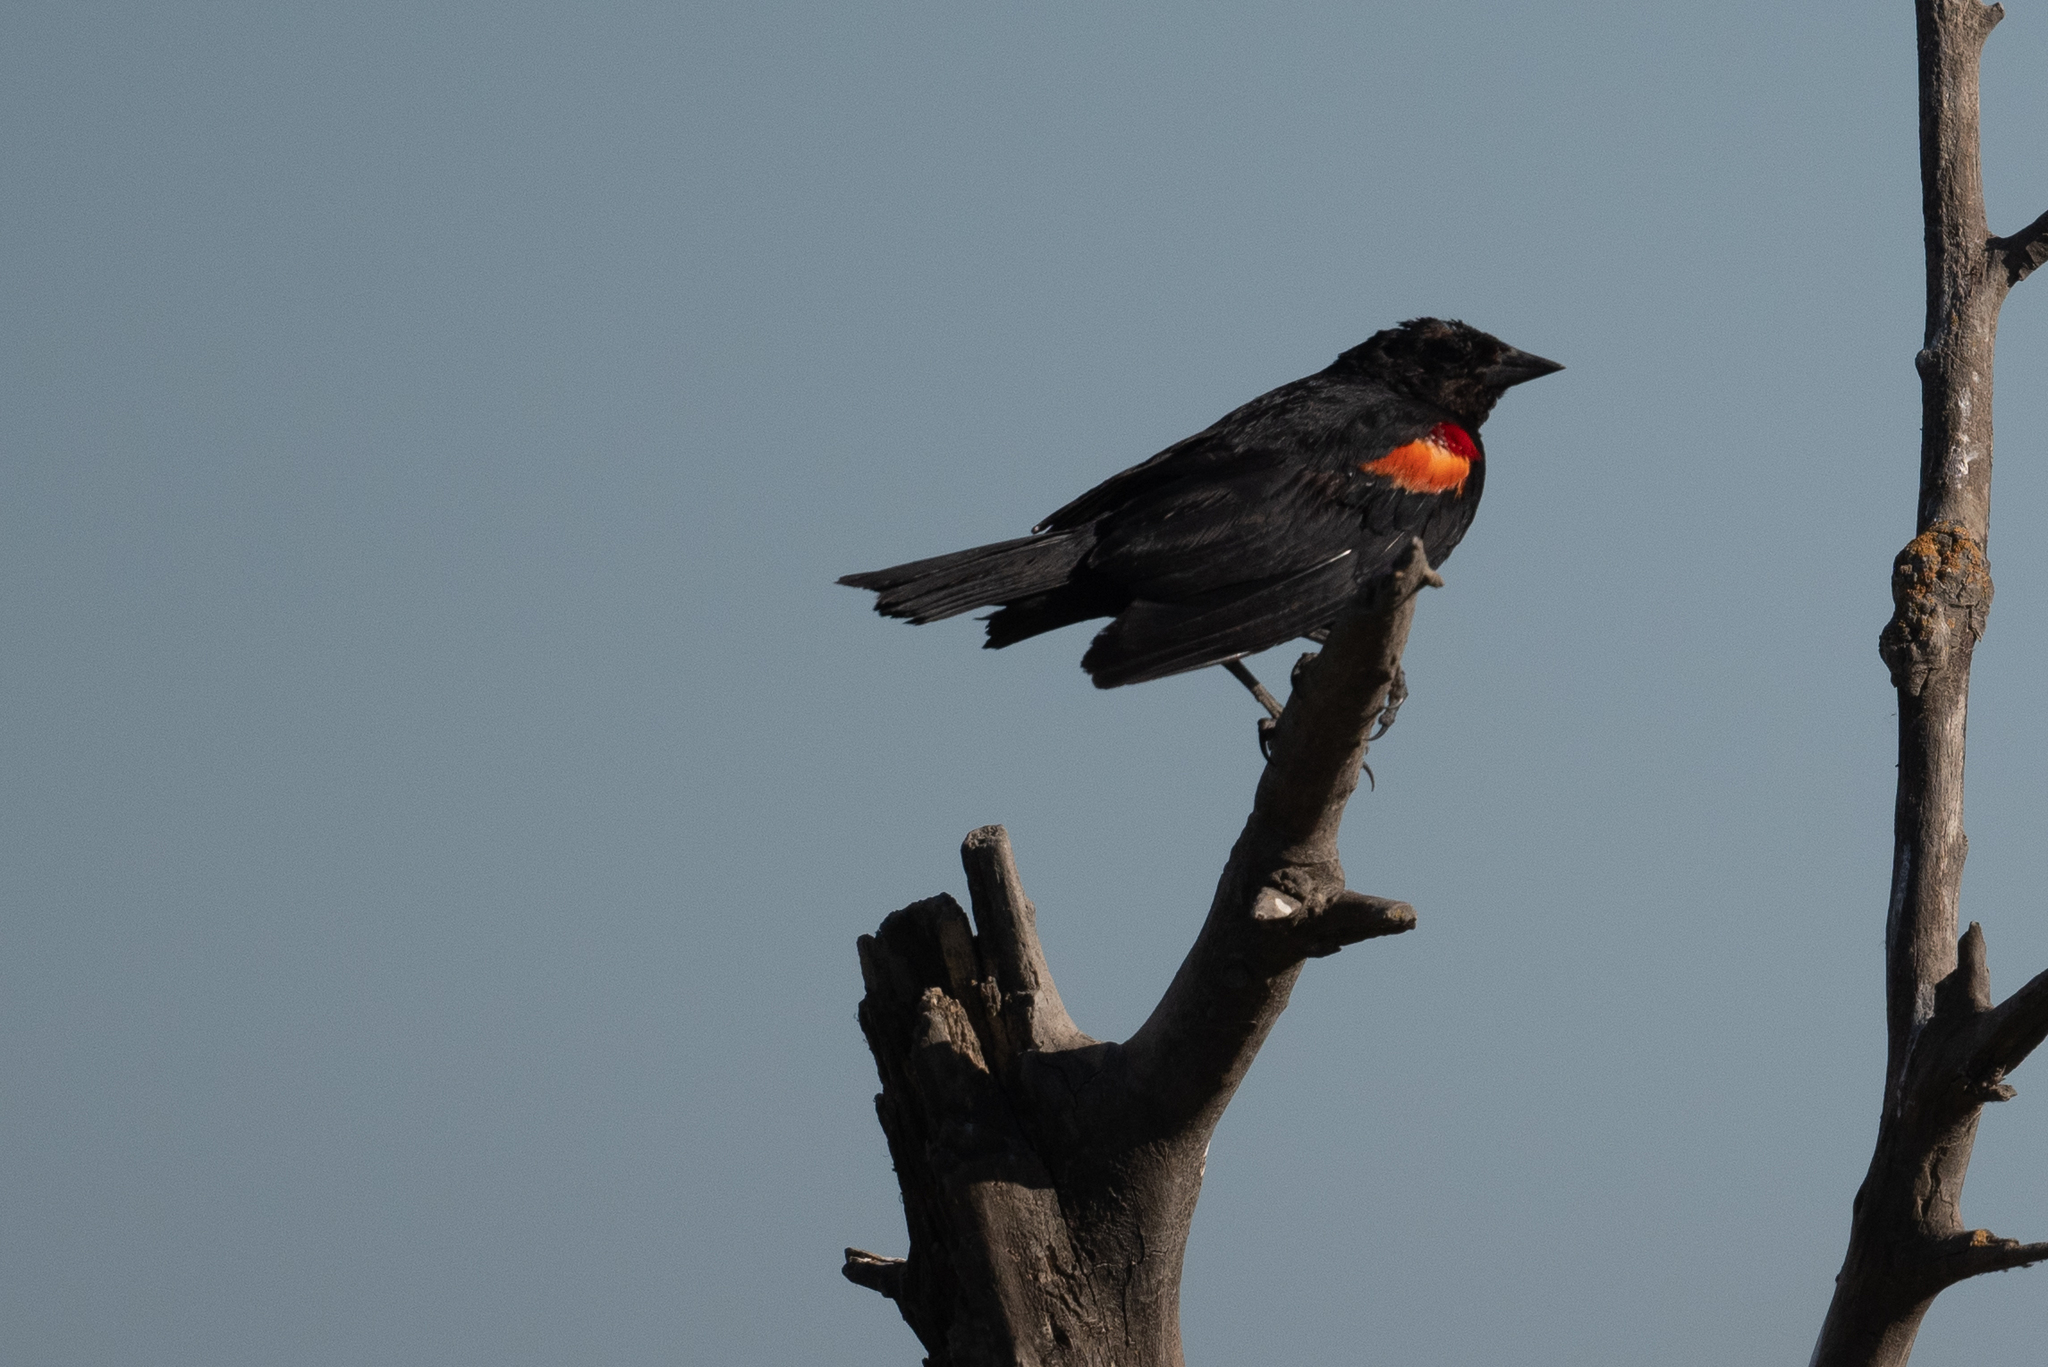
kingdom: Animalia
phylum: Chordata
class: Aves
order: Passeriformes
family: Icteridae
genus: Agelaius
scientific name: Agelaius phoeniceus
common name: Red-winged blackbird
